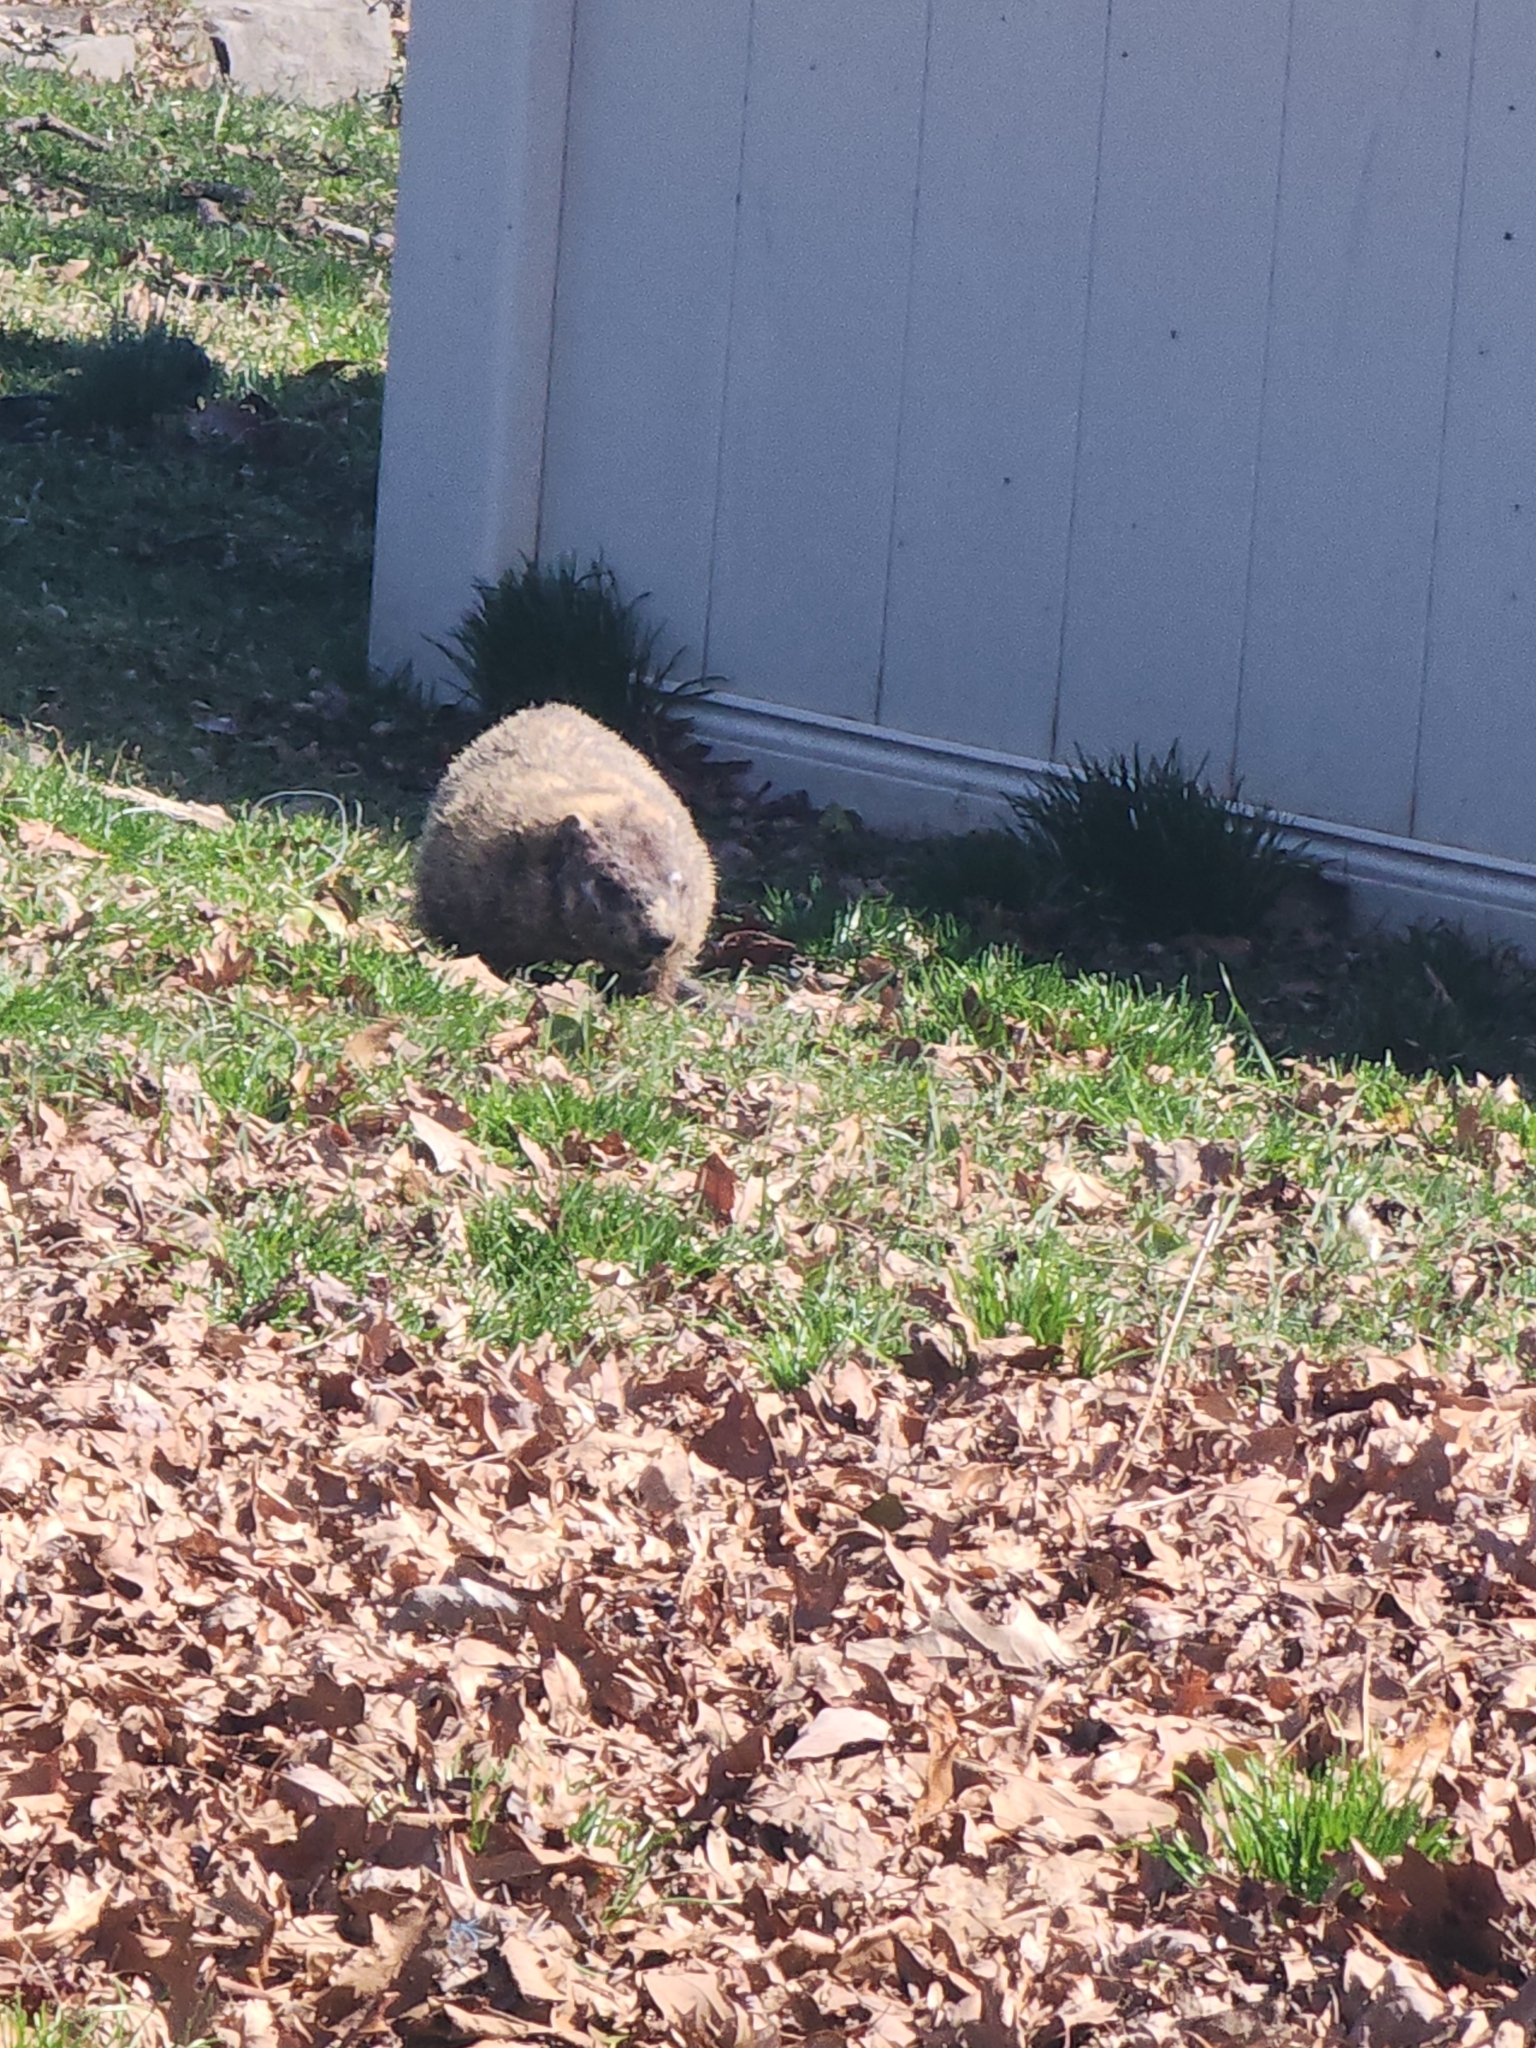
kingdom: Animalia
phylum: Chordata
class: Mammalia
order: Rodentia
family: Sciuridae
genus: Marmota
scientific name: Marmota monax
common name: Groundhog
